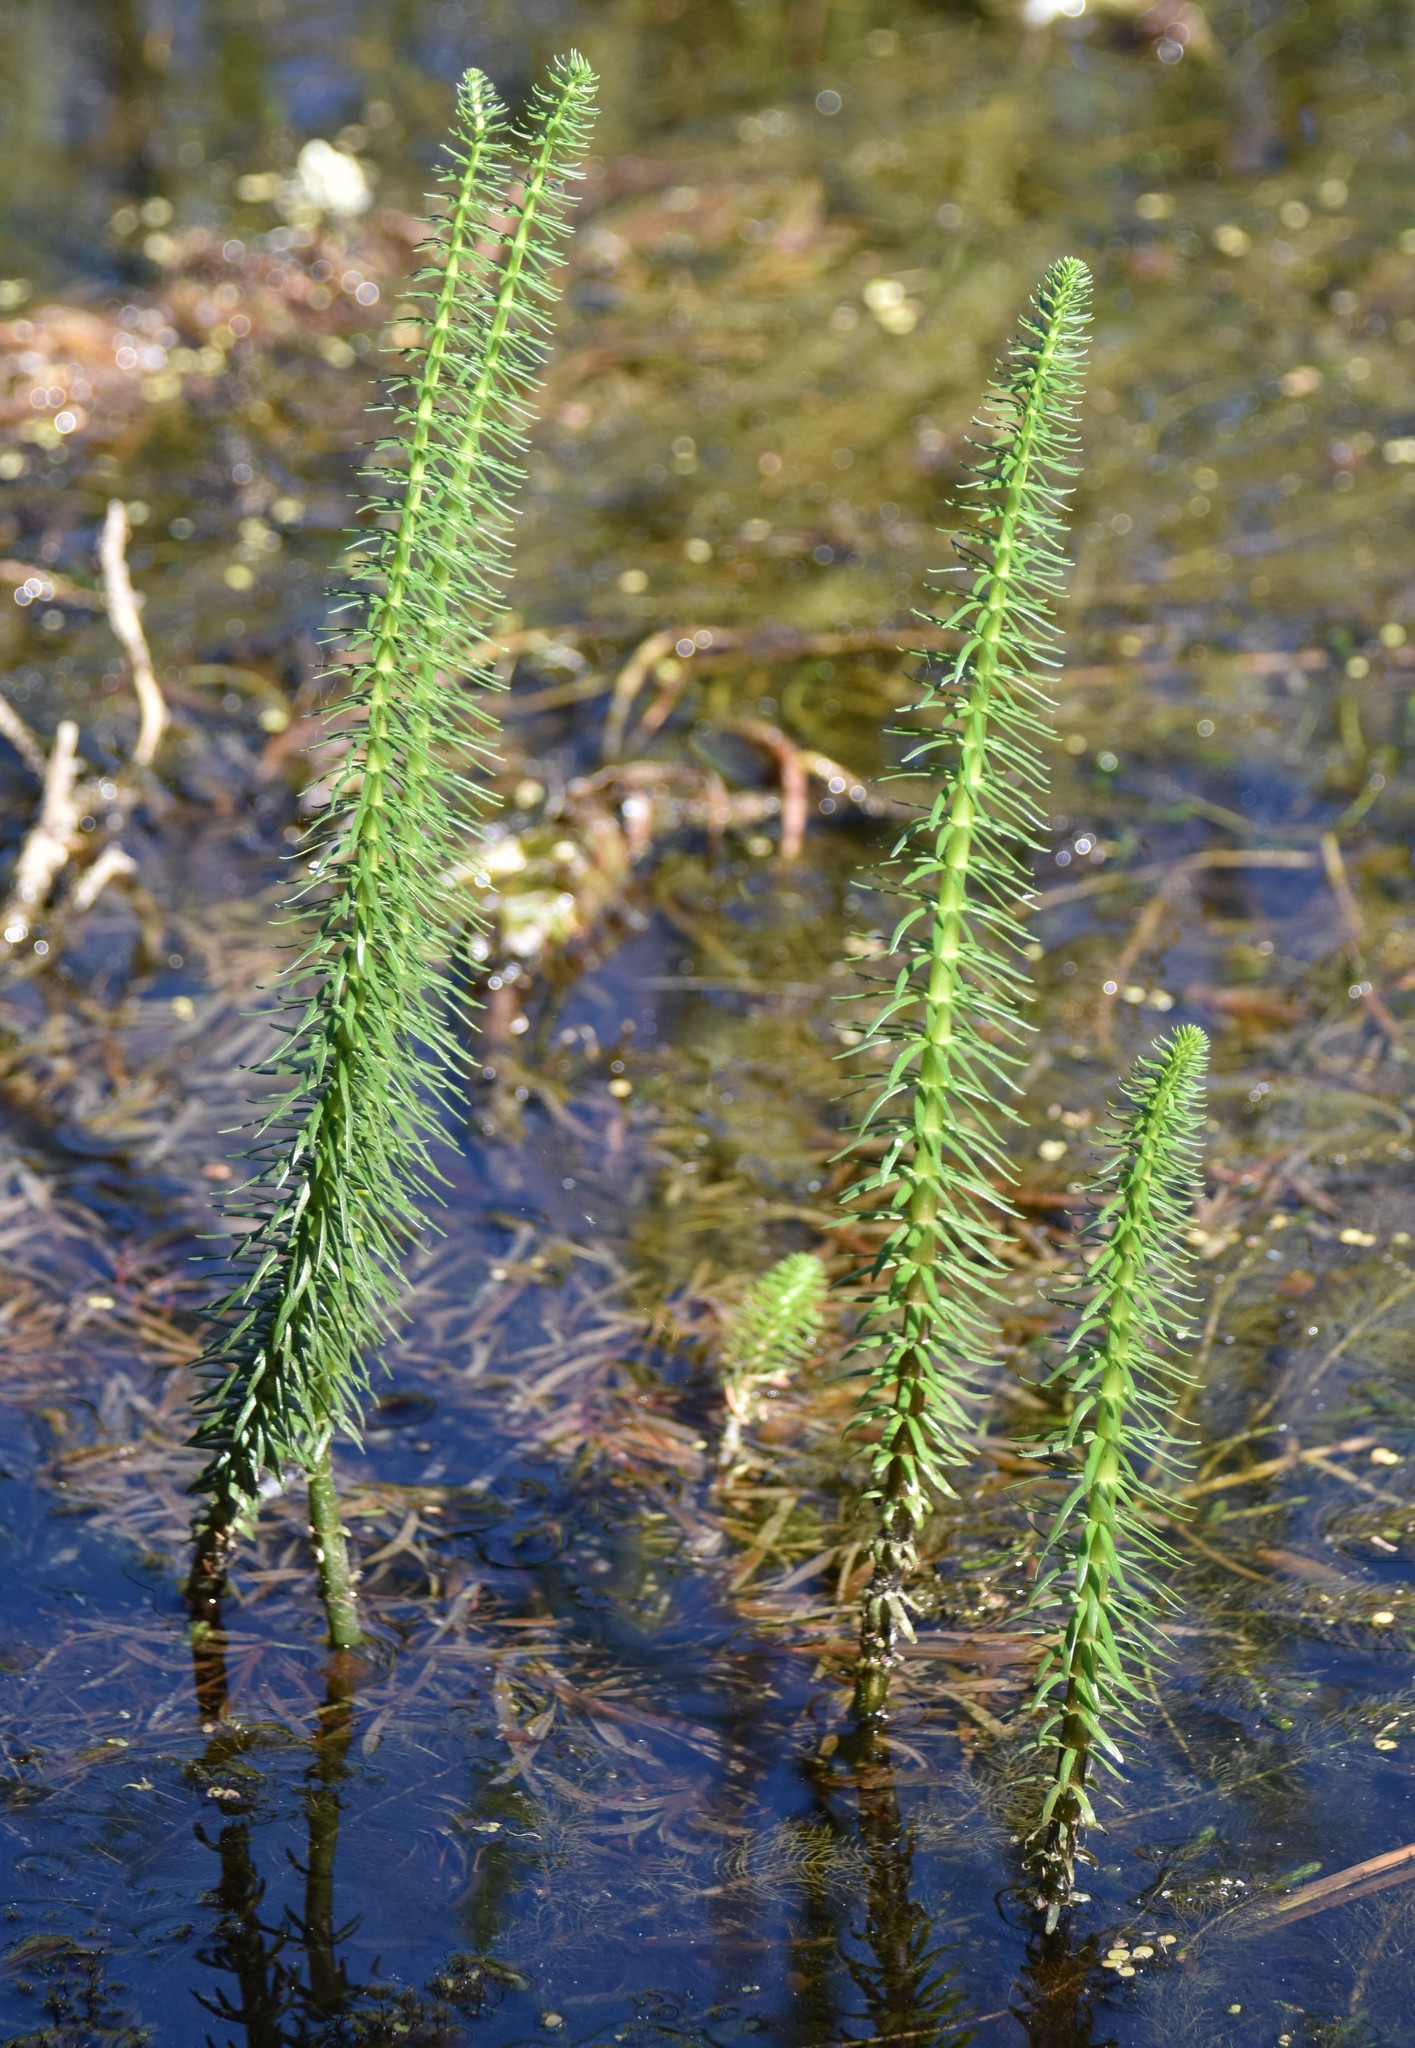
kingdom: Plantae
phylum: Tracheophyta
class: Magnoliopsida
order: Lamiales
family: Plantaginaceae
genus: Hippuris
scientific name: Hippuris vulgaris
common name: Mare's-tail
